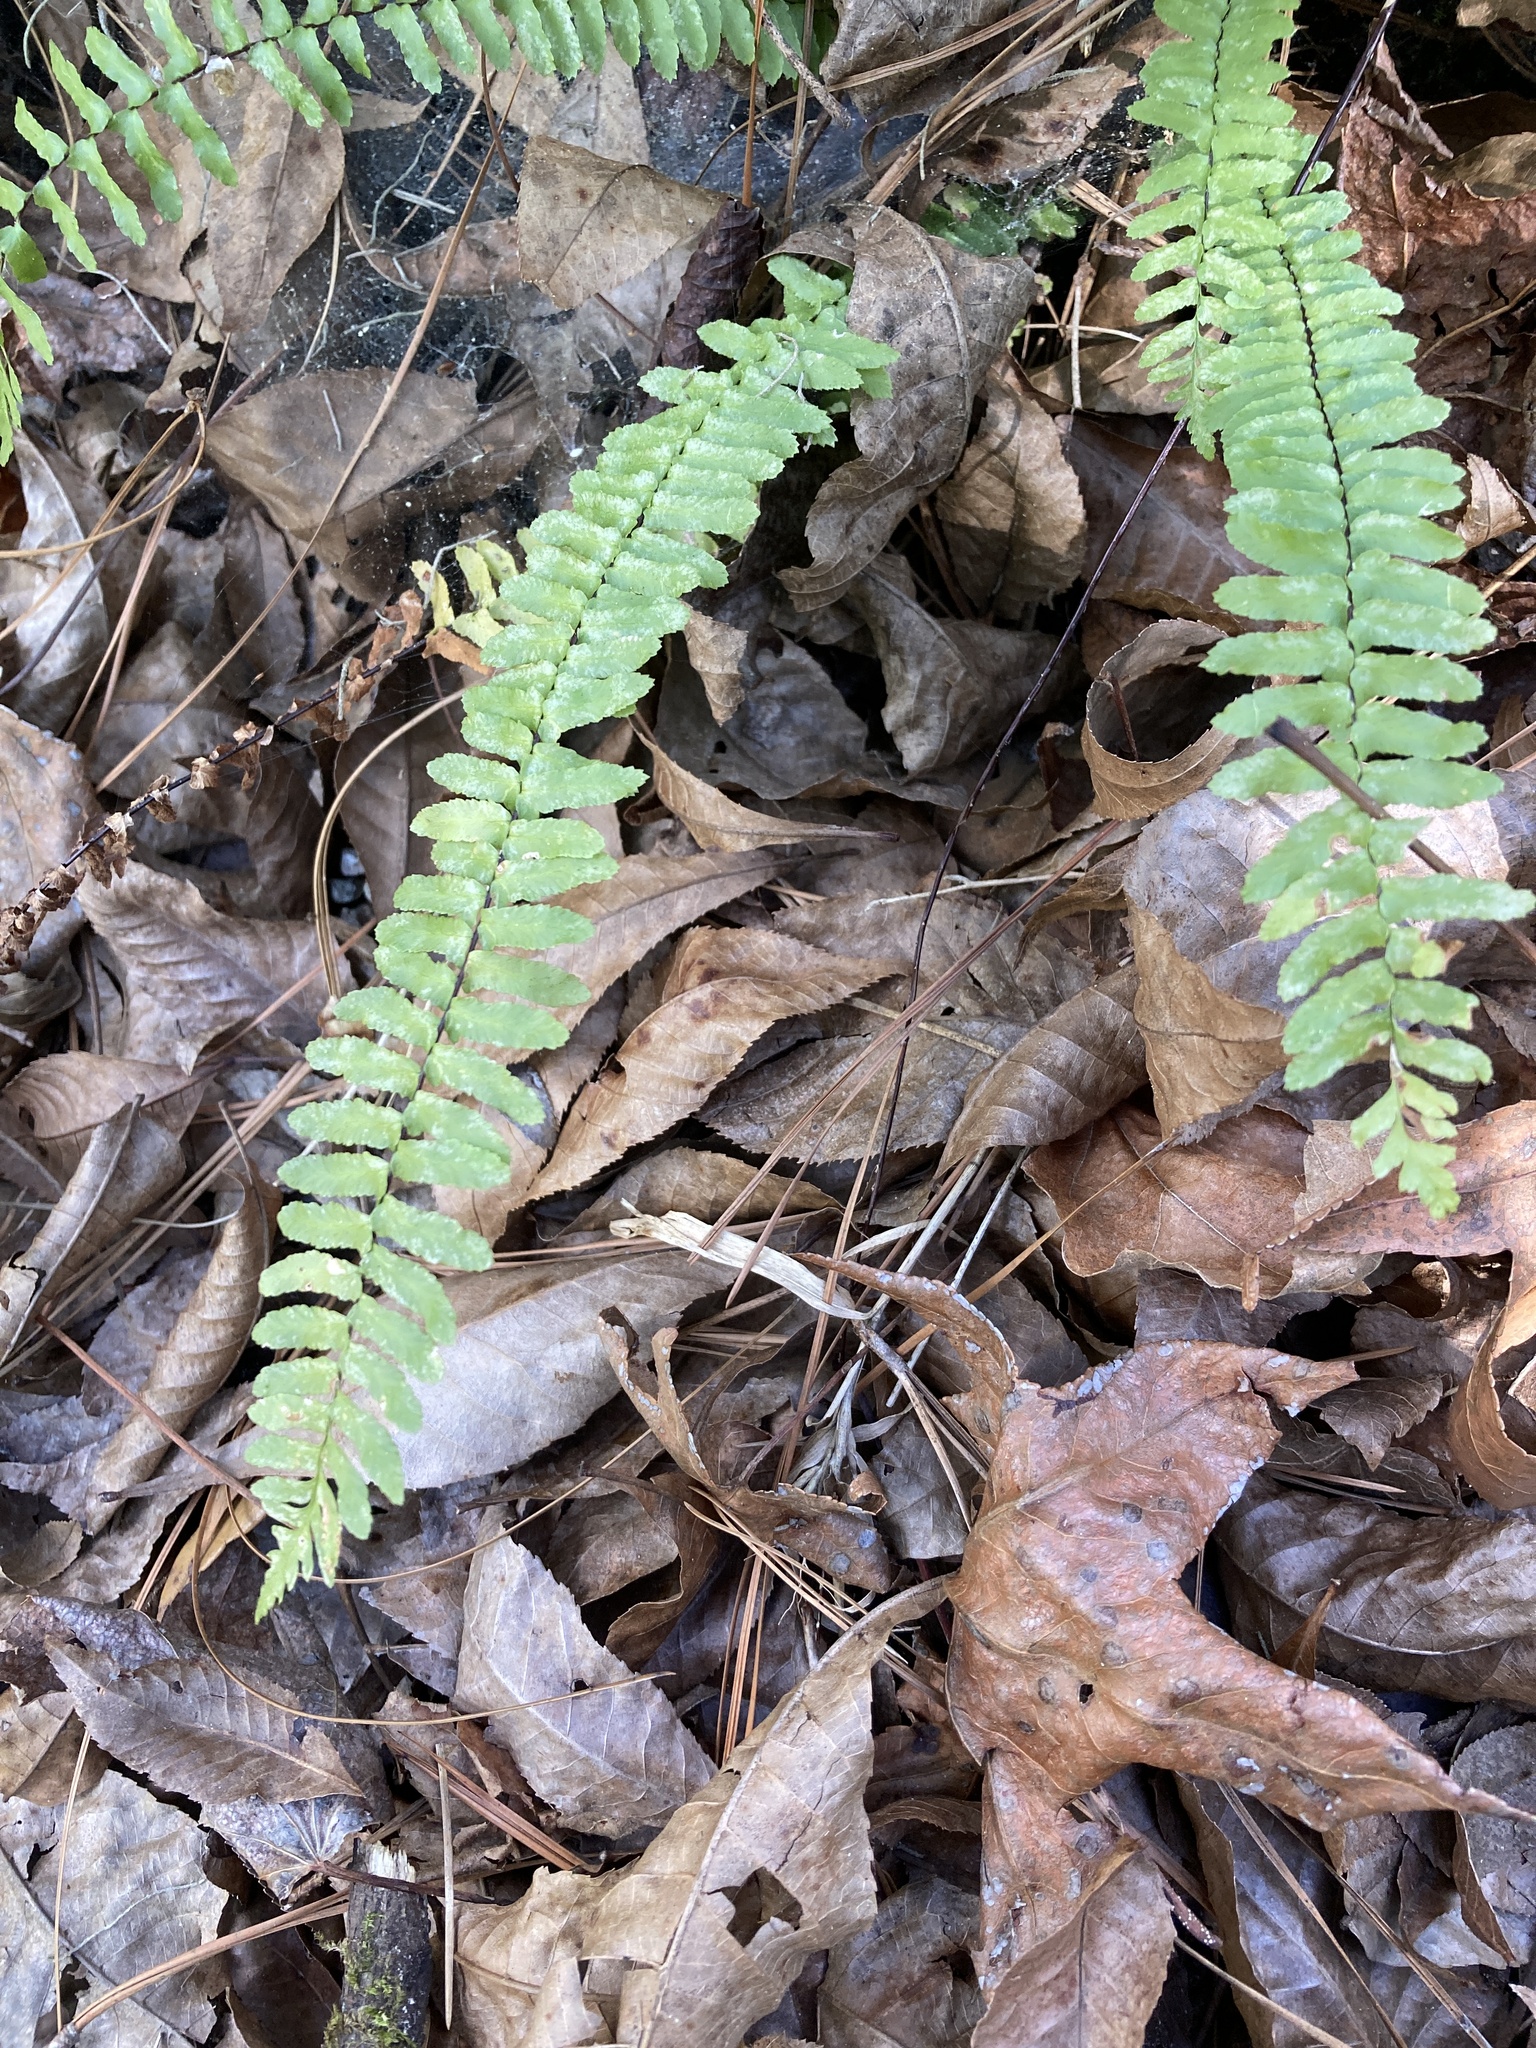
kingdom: Plantae
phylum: Tracheophyta
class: Polypodiopsida
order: Polypodiales
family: Aspleniaceae
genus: Asplenium
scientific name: Asplenium platyneuron
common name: Ebony spleenwort
